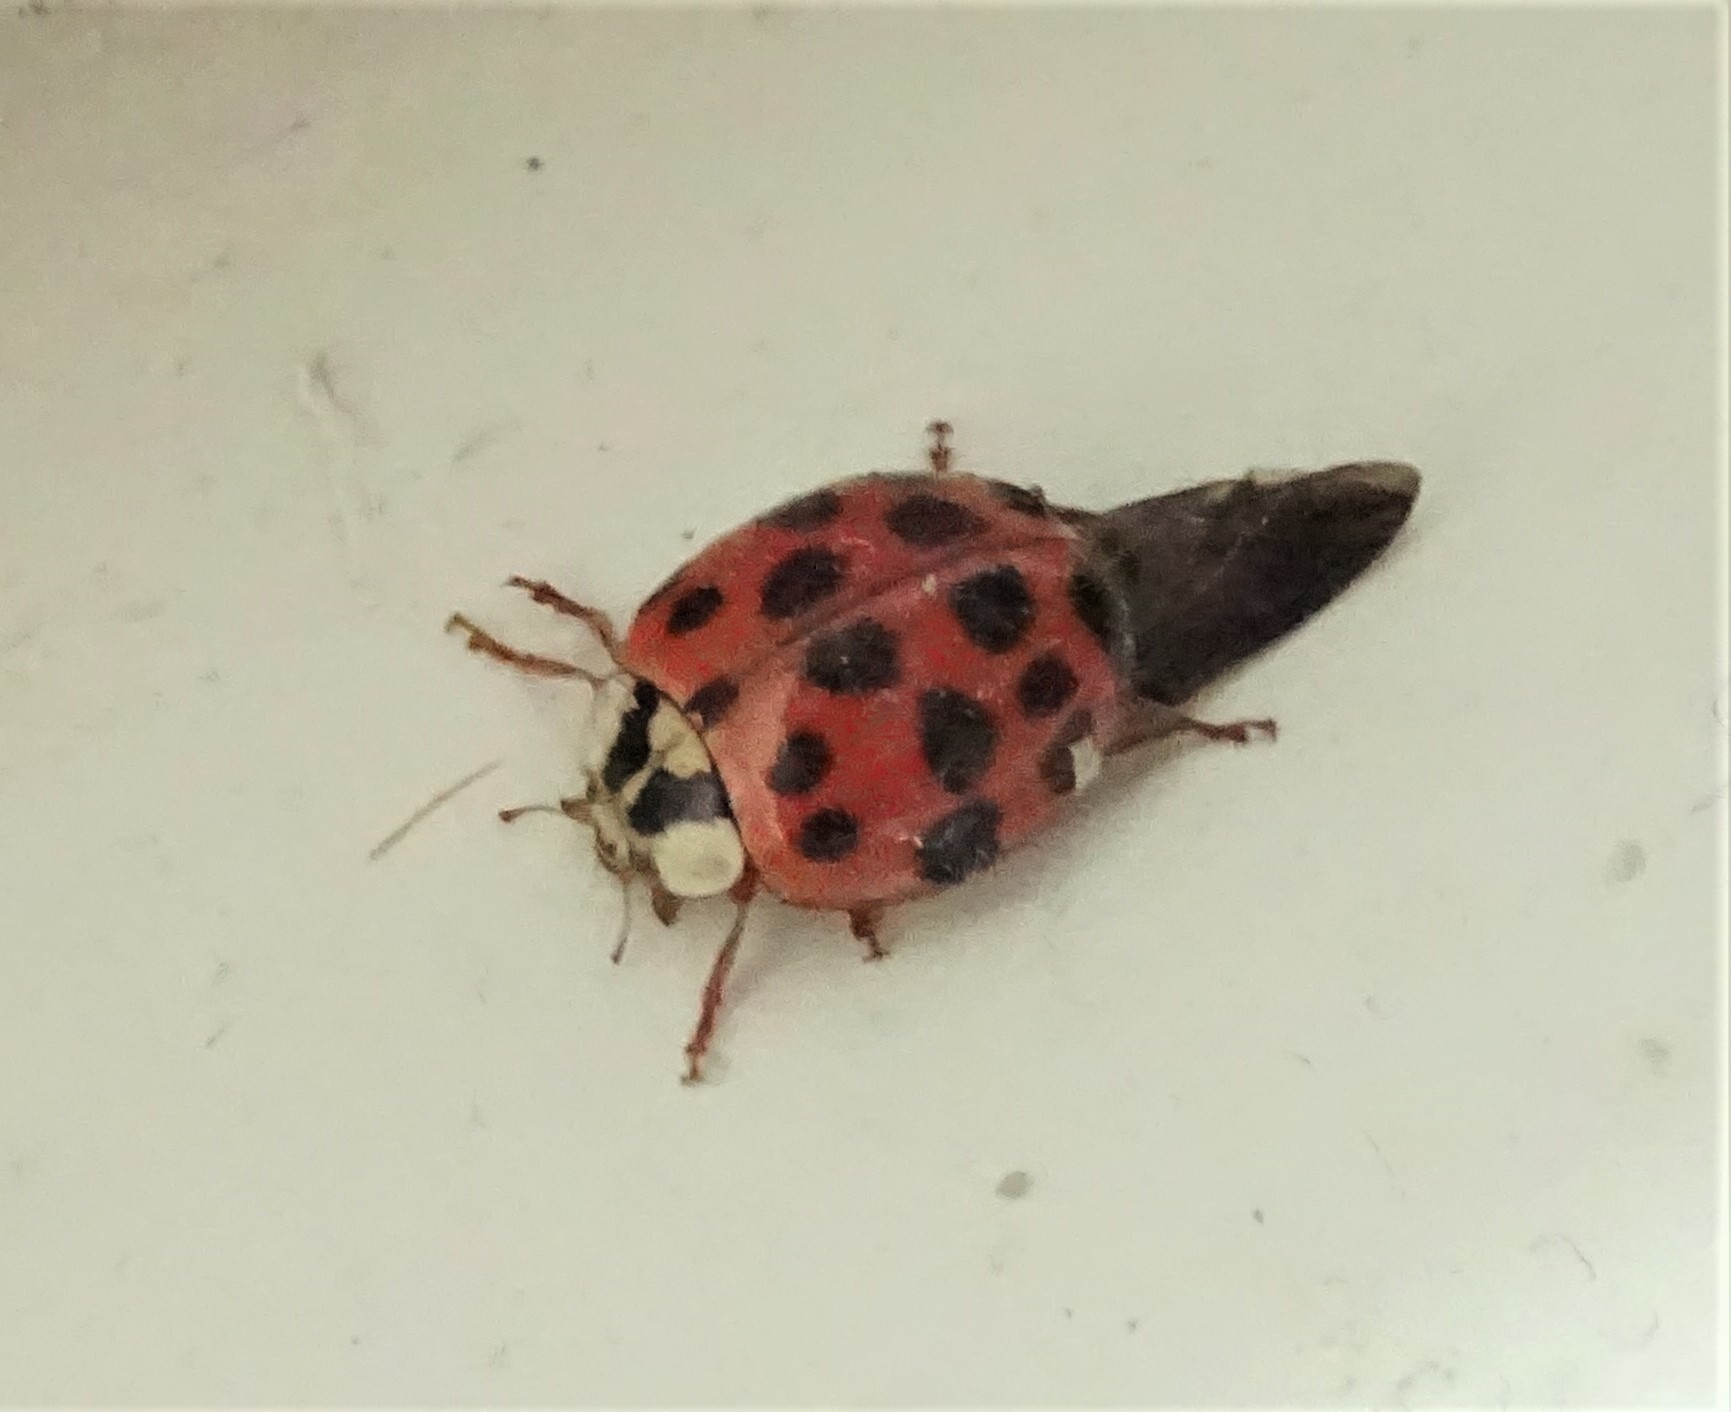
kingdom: Animalia
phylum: Arthropoda
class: Insecta
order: Coleoptera
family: Coccinellidae
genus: Harmonia
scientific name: Harmonia axyridis
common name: Harlequin ladybird
